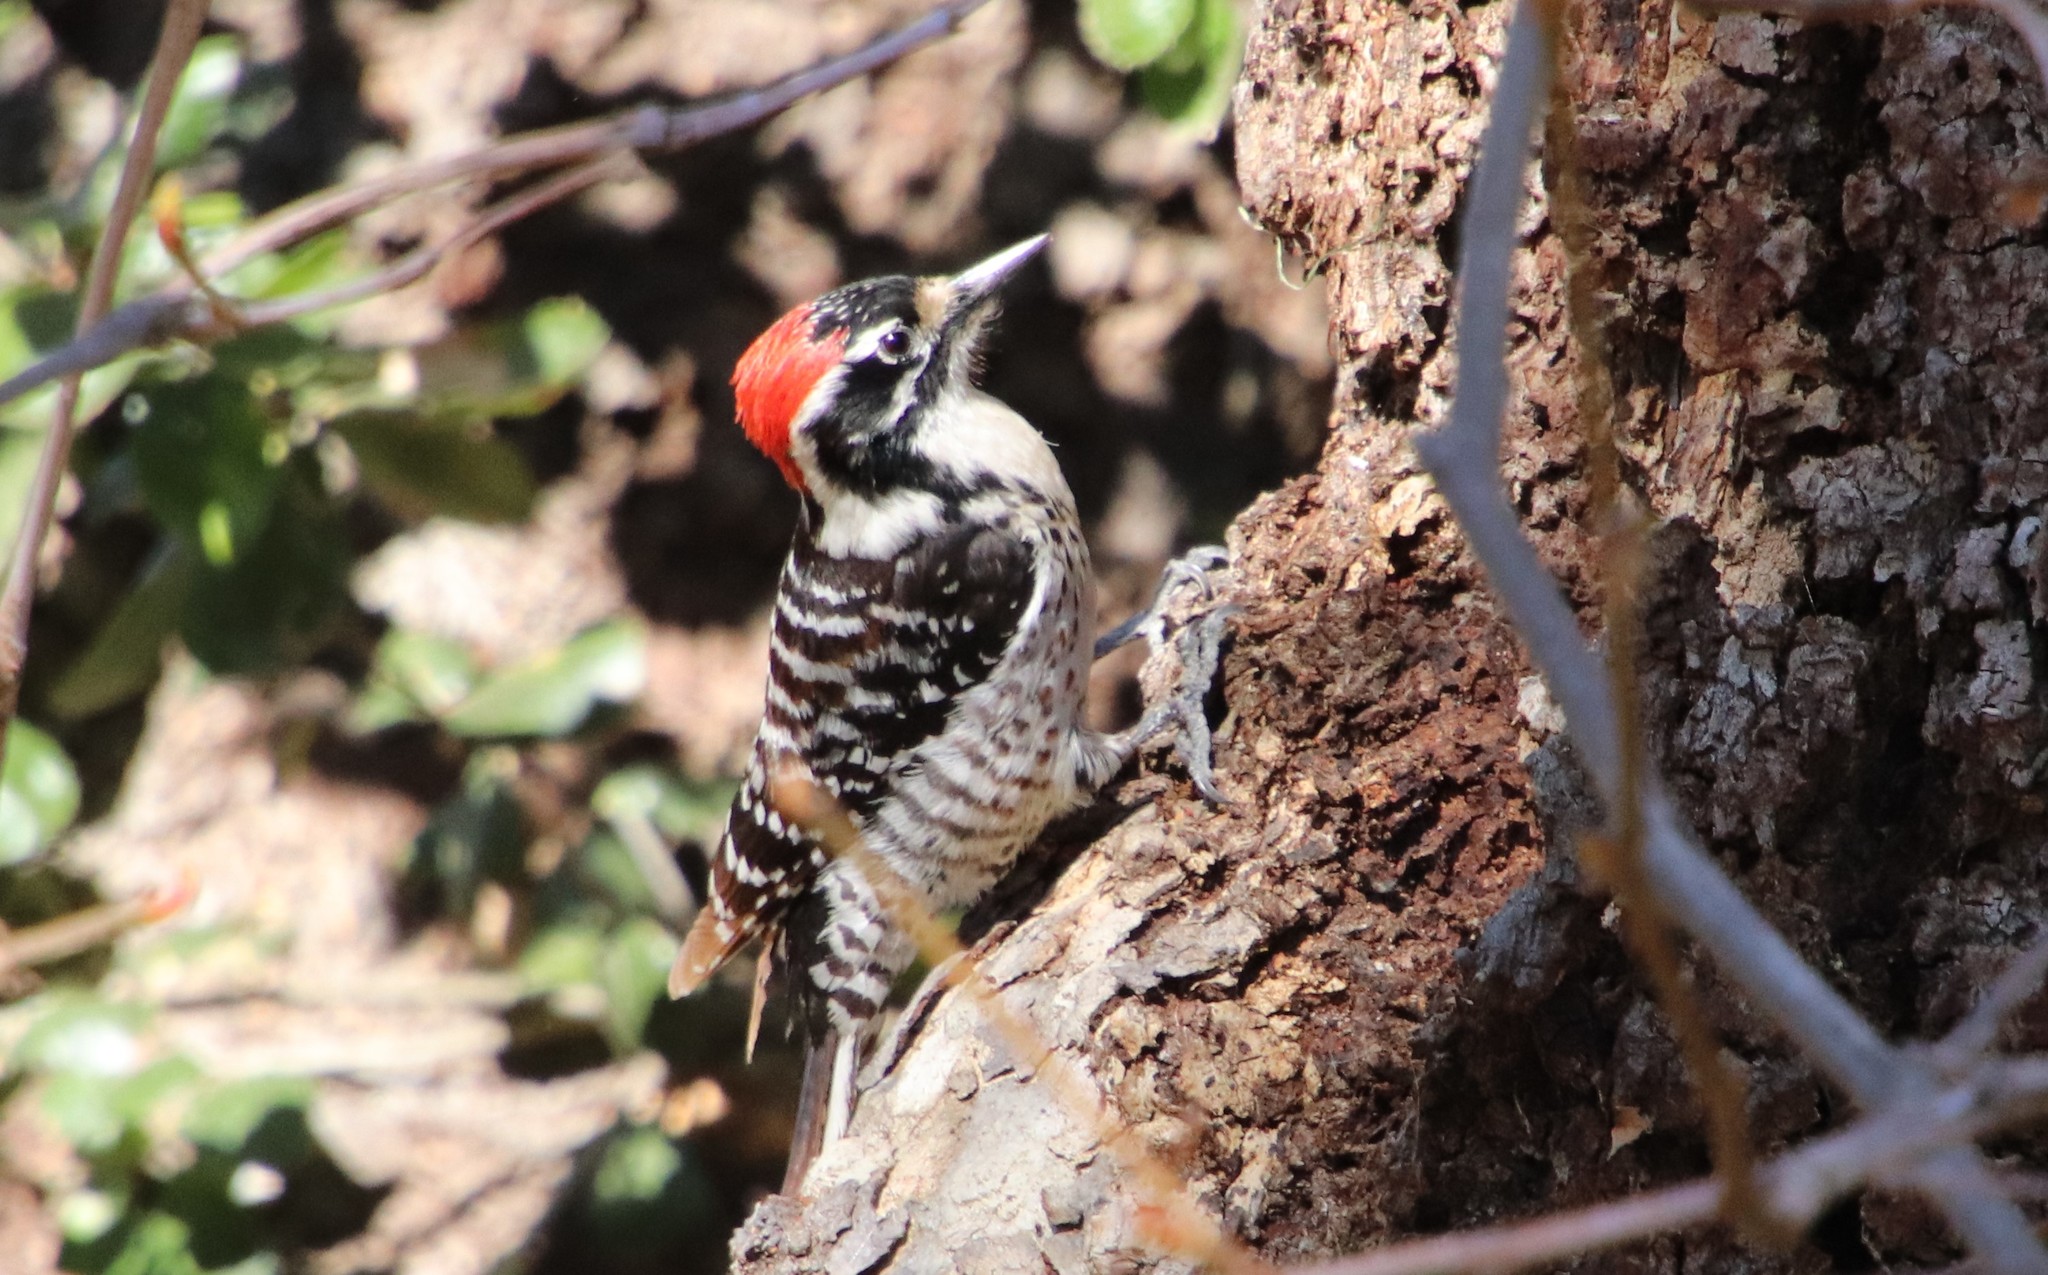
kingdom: Animalia
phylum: Chordata
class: Aves
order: Piciformes
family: Picidae
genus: Dryobates
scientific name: Dryobates nuttallii
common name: Nuttall's woodpecker
